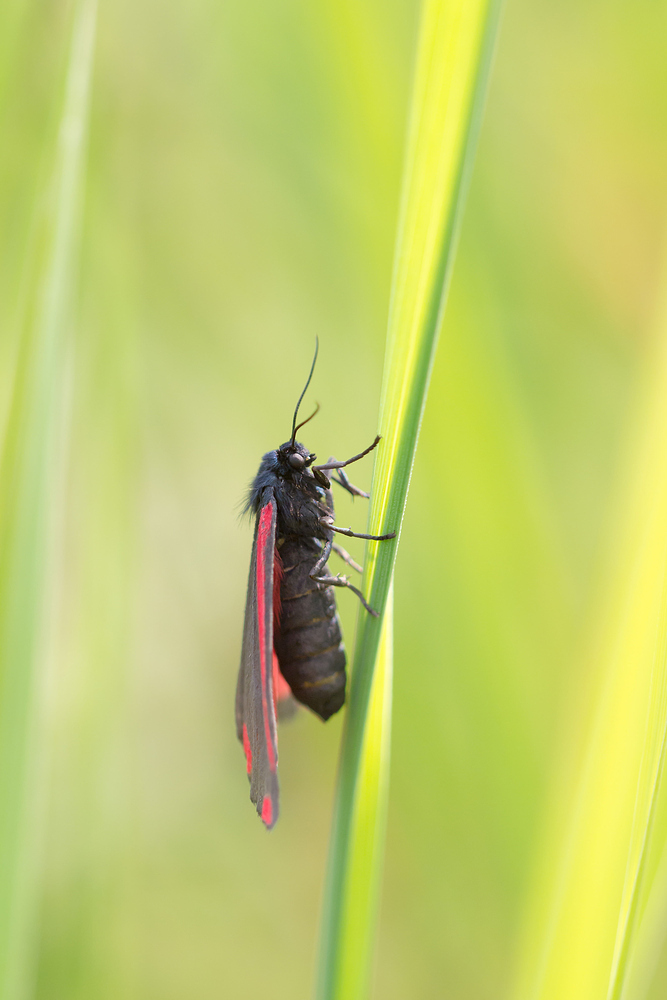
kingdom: Animalia
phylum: Arthropoda
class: Insecta
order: Lepidoptera
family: Erebidae
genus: Tyria
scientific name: Tyria jacobaeae
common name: Cinnabar
